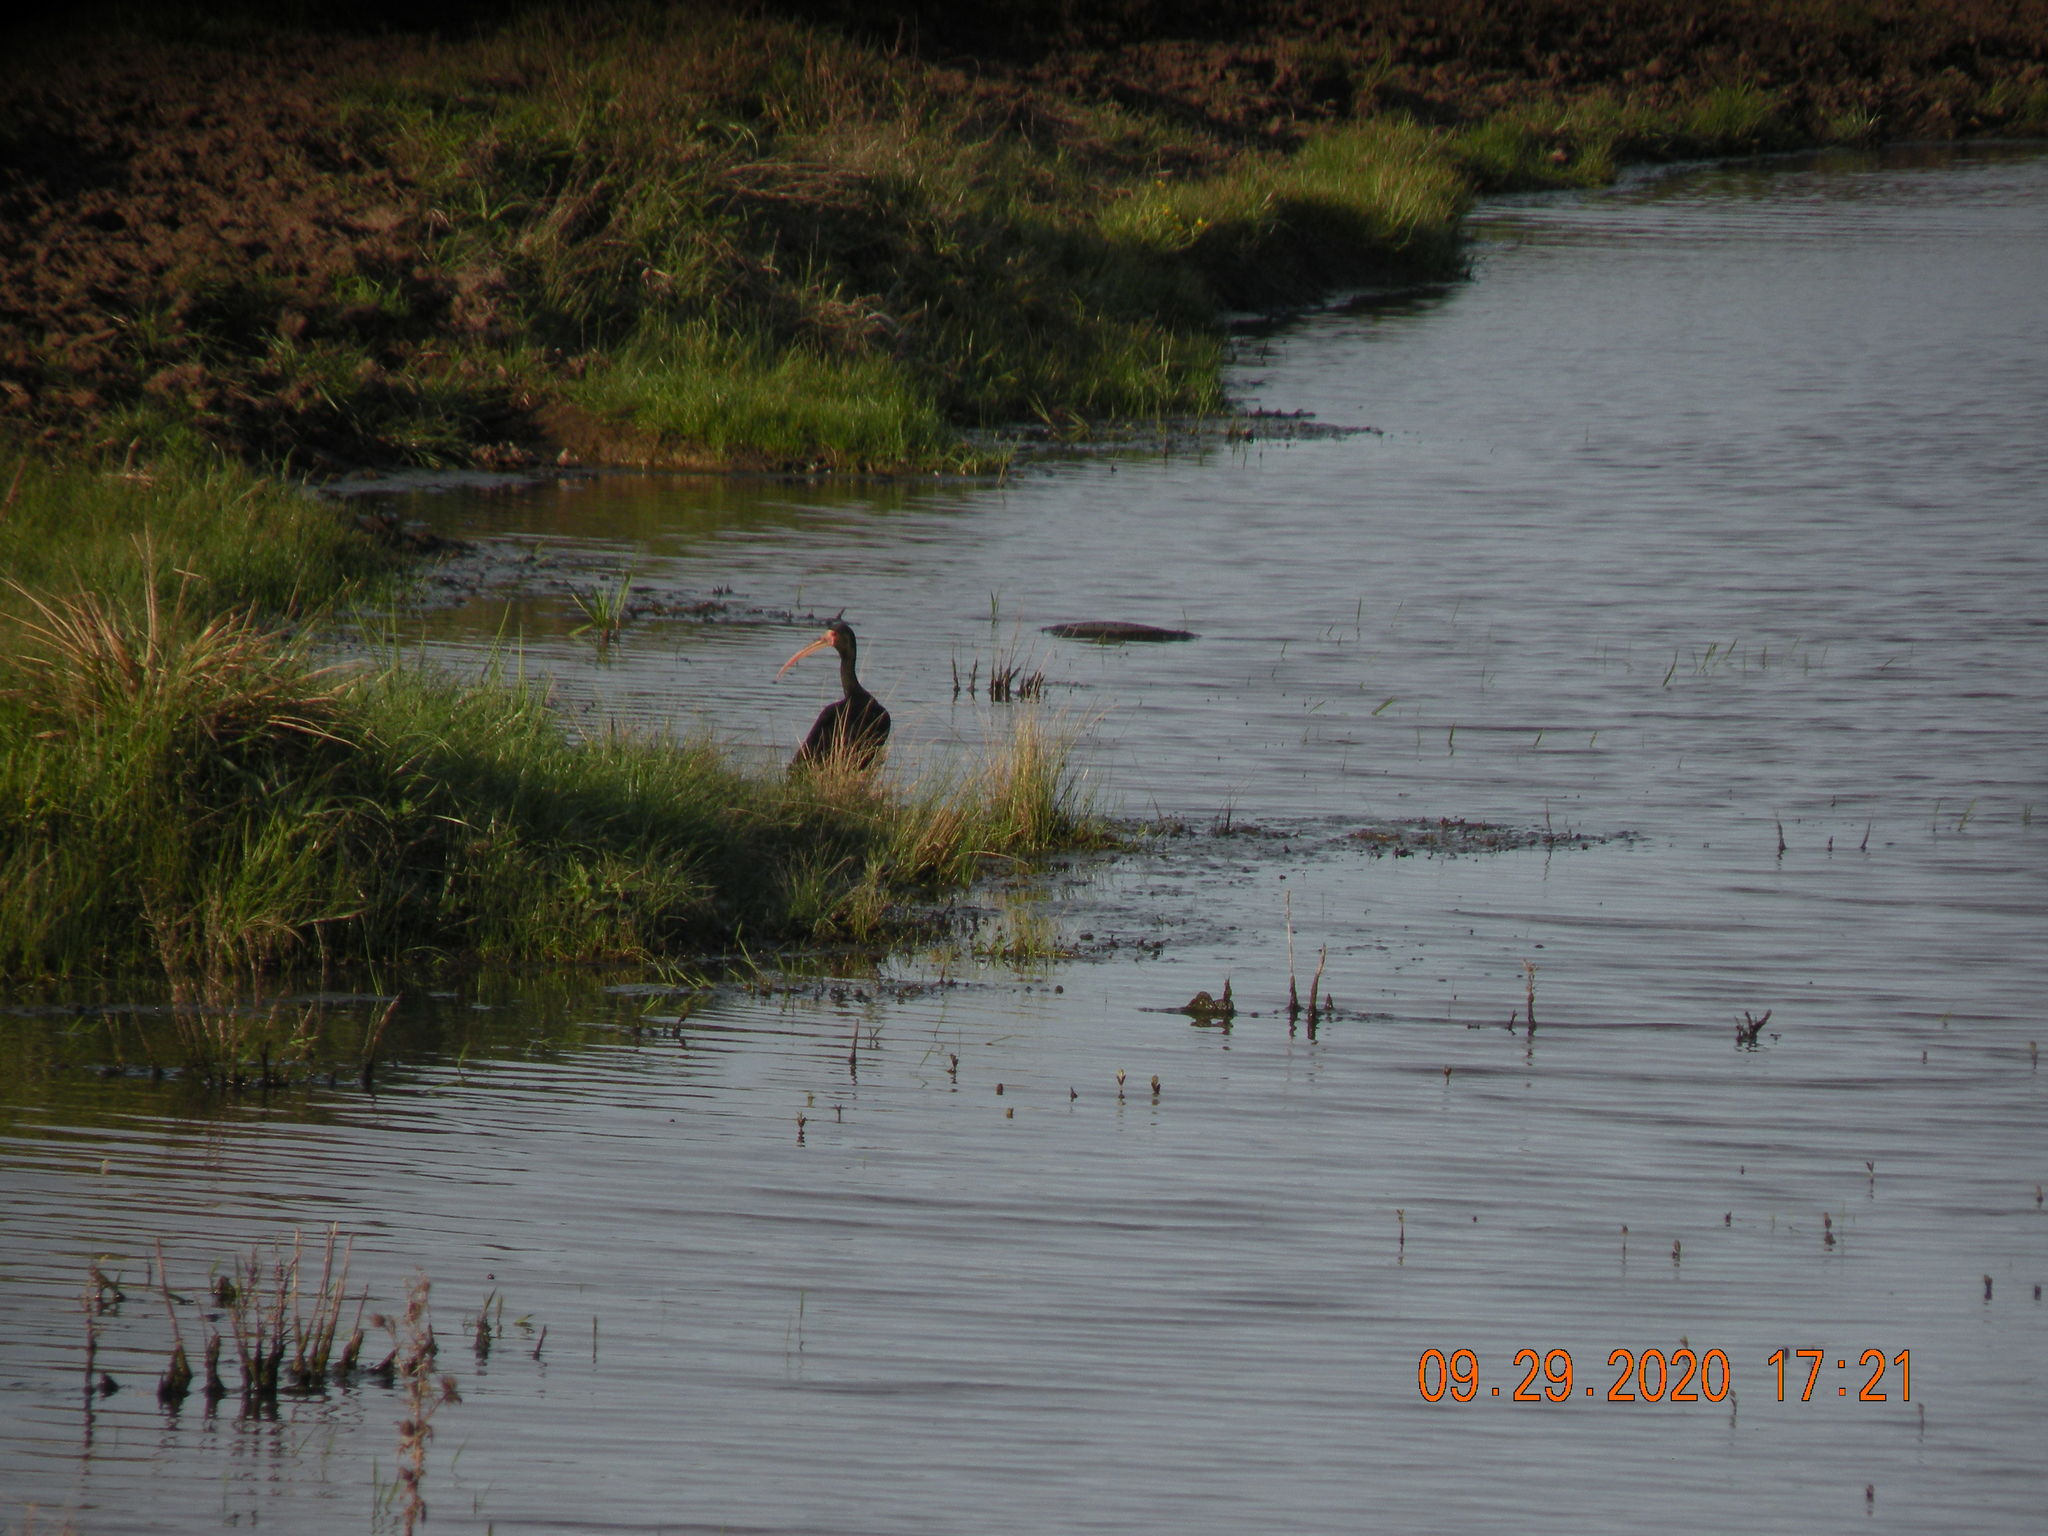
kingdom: Animalia
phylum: Chordata
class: Aves
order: Pelecaniformes
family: Threskiornithidae
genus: Phimosus
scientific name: Phimosus infuscatus
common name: Bare-faced ibis
